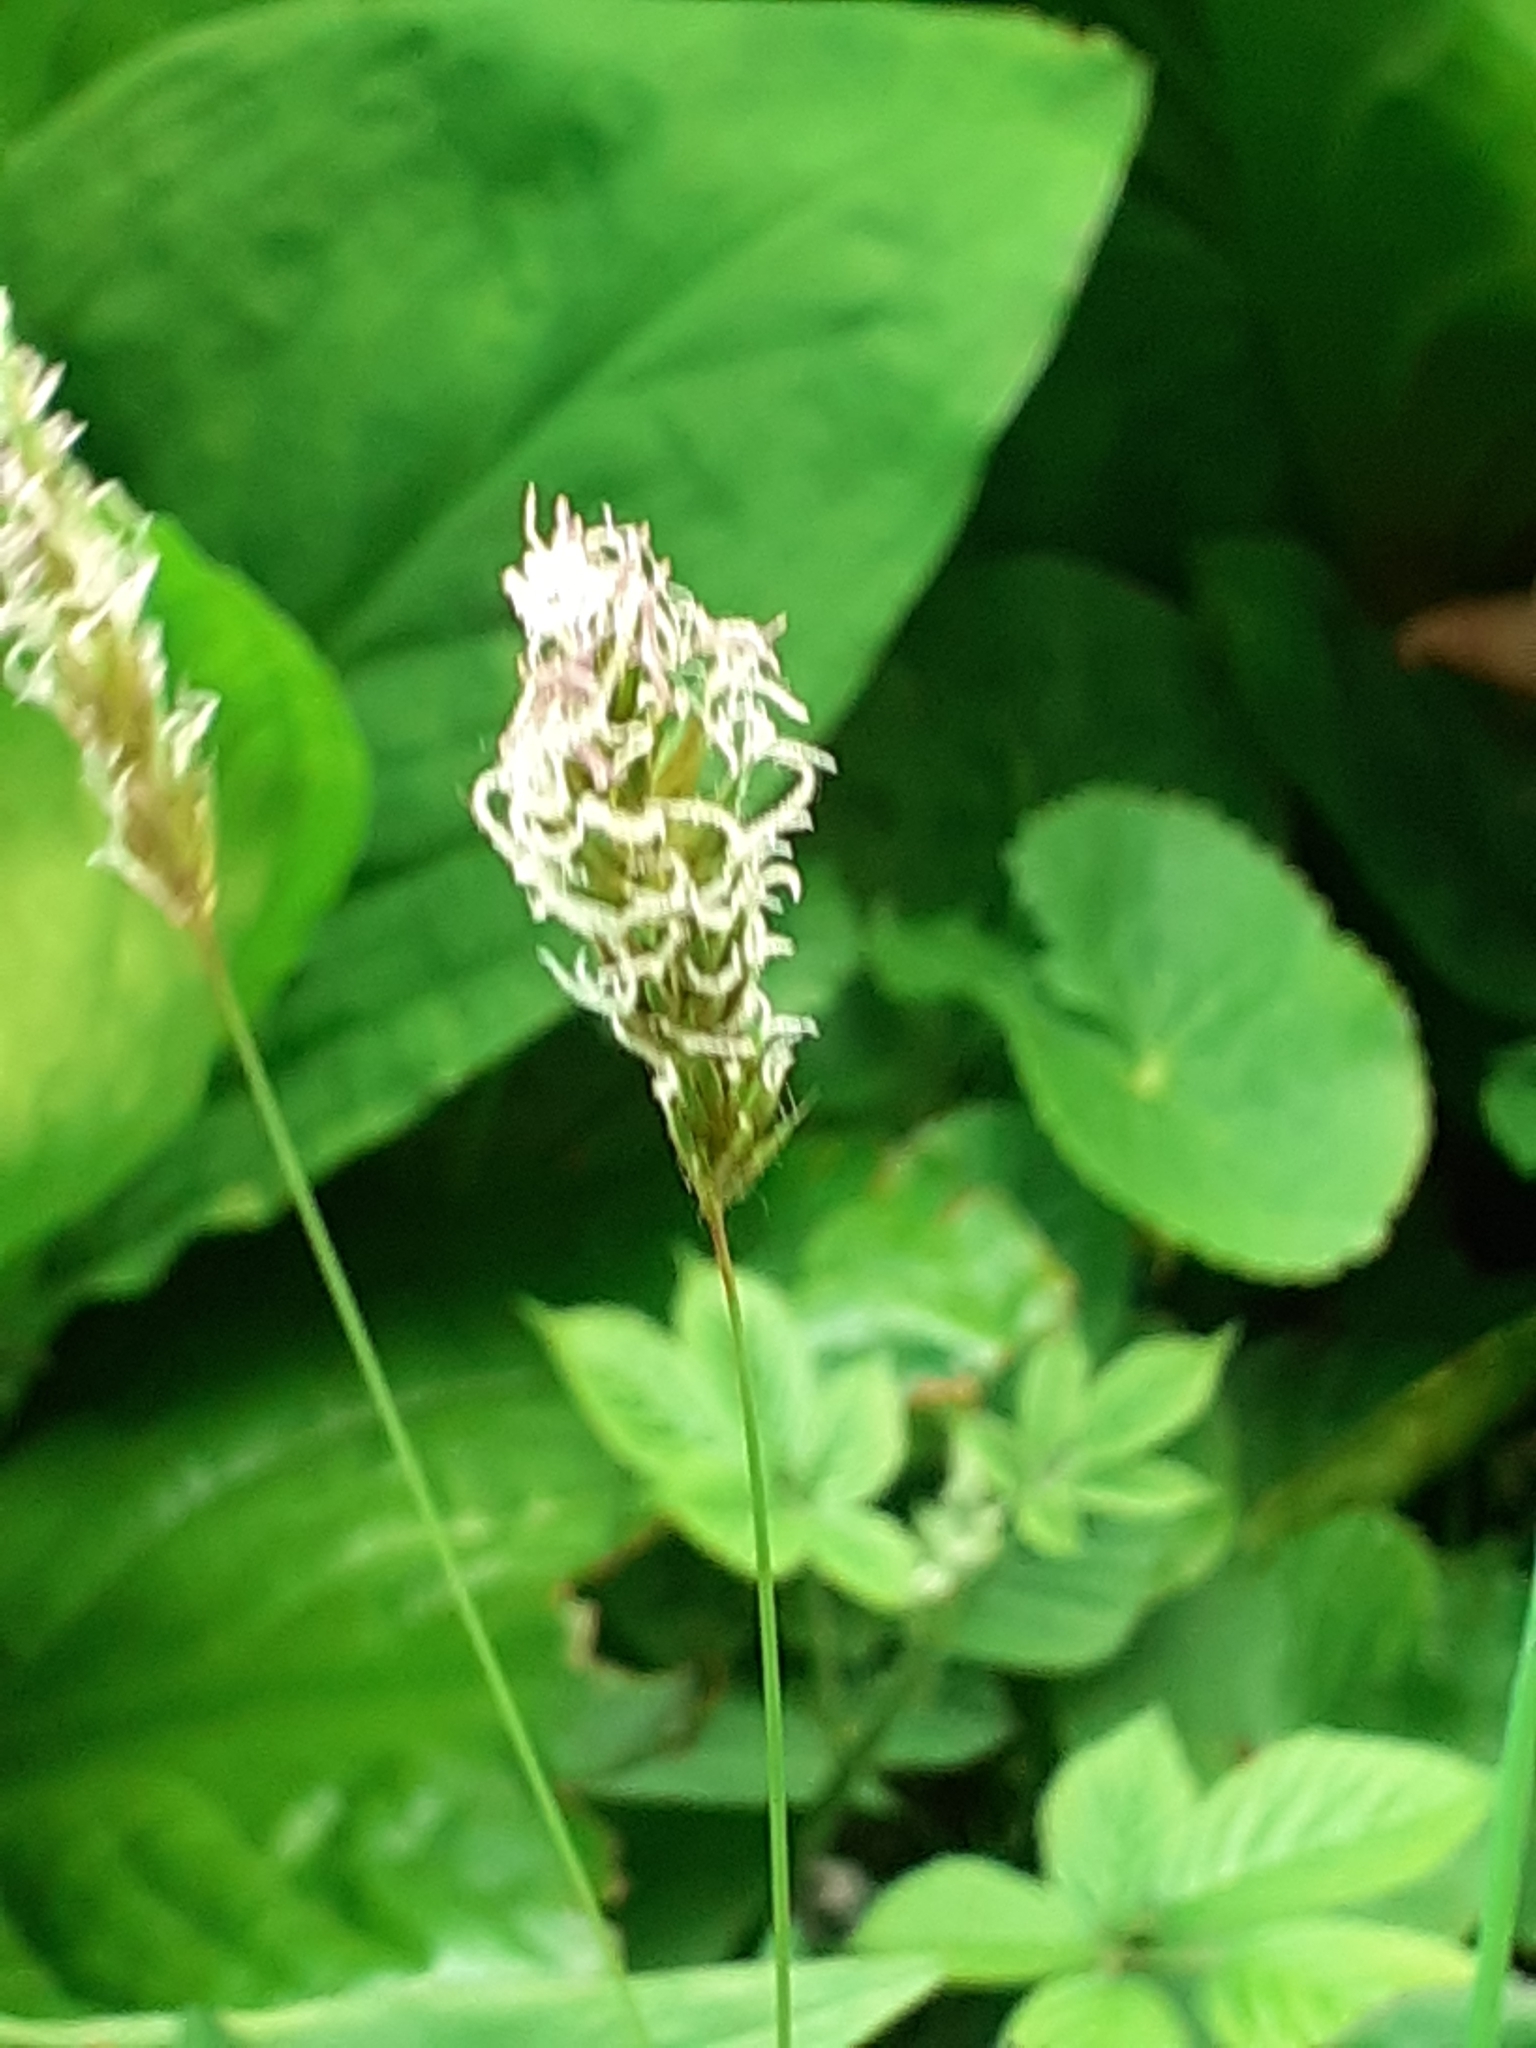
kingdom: Plantae
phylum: Tracheophyta
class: Liliopsida
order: Poales
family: Poaceae
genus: Anthoxanthum
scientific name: Anthoxanthum odoratum
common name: Sweet vernalgrass
